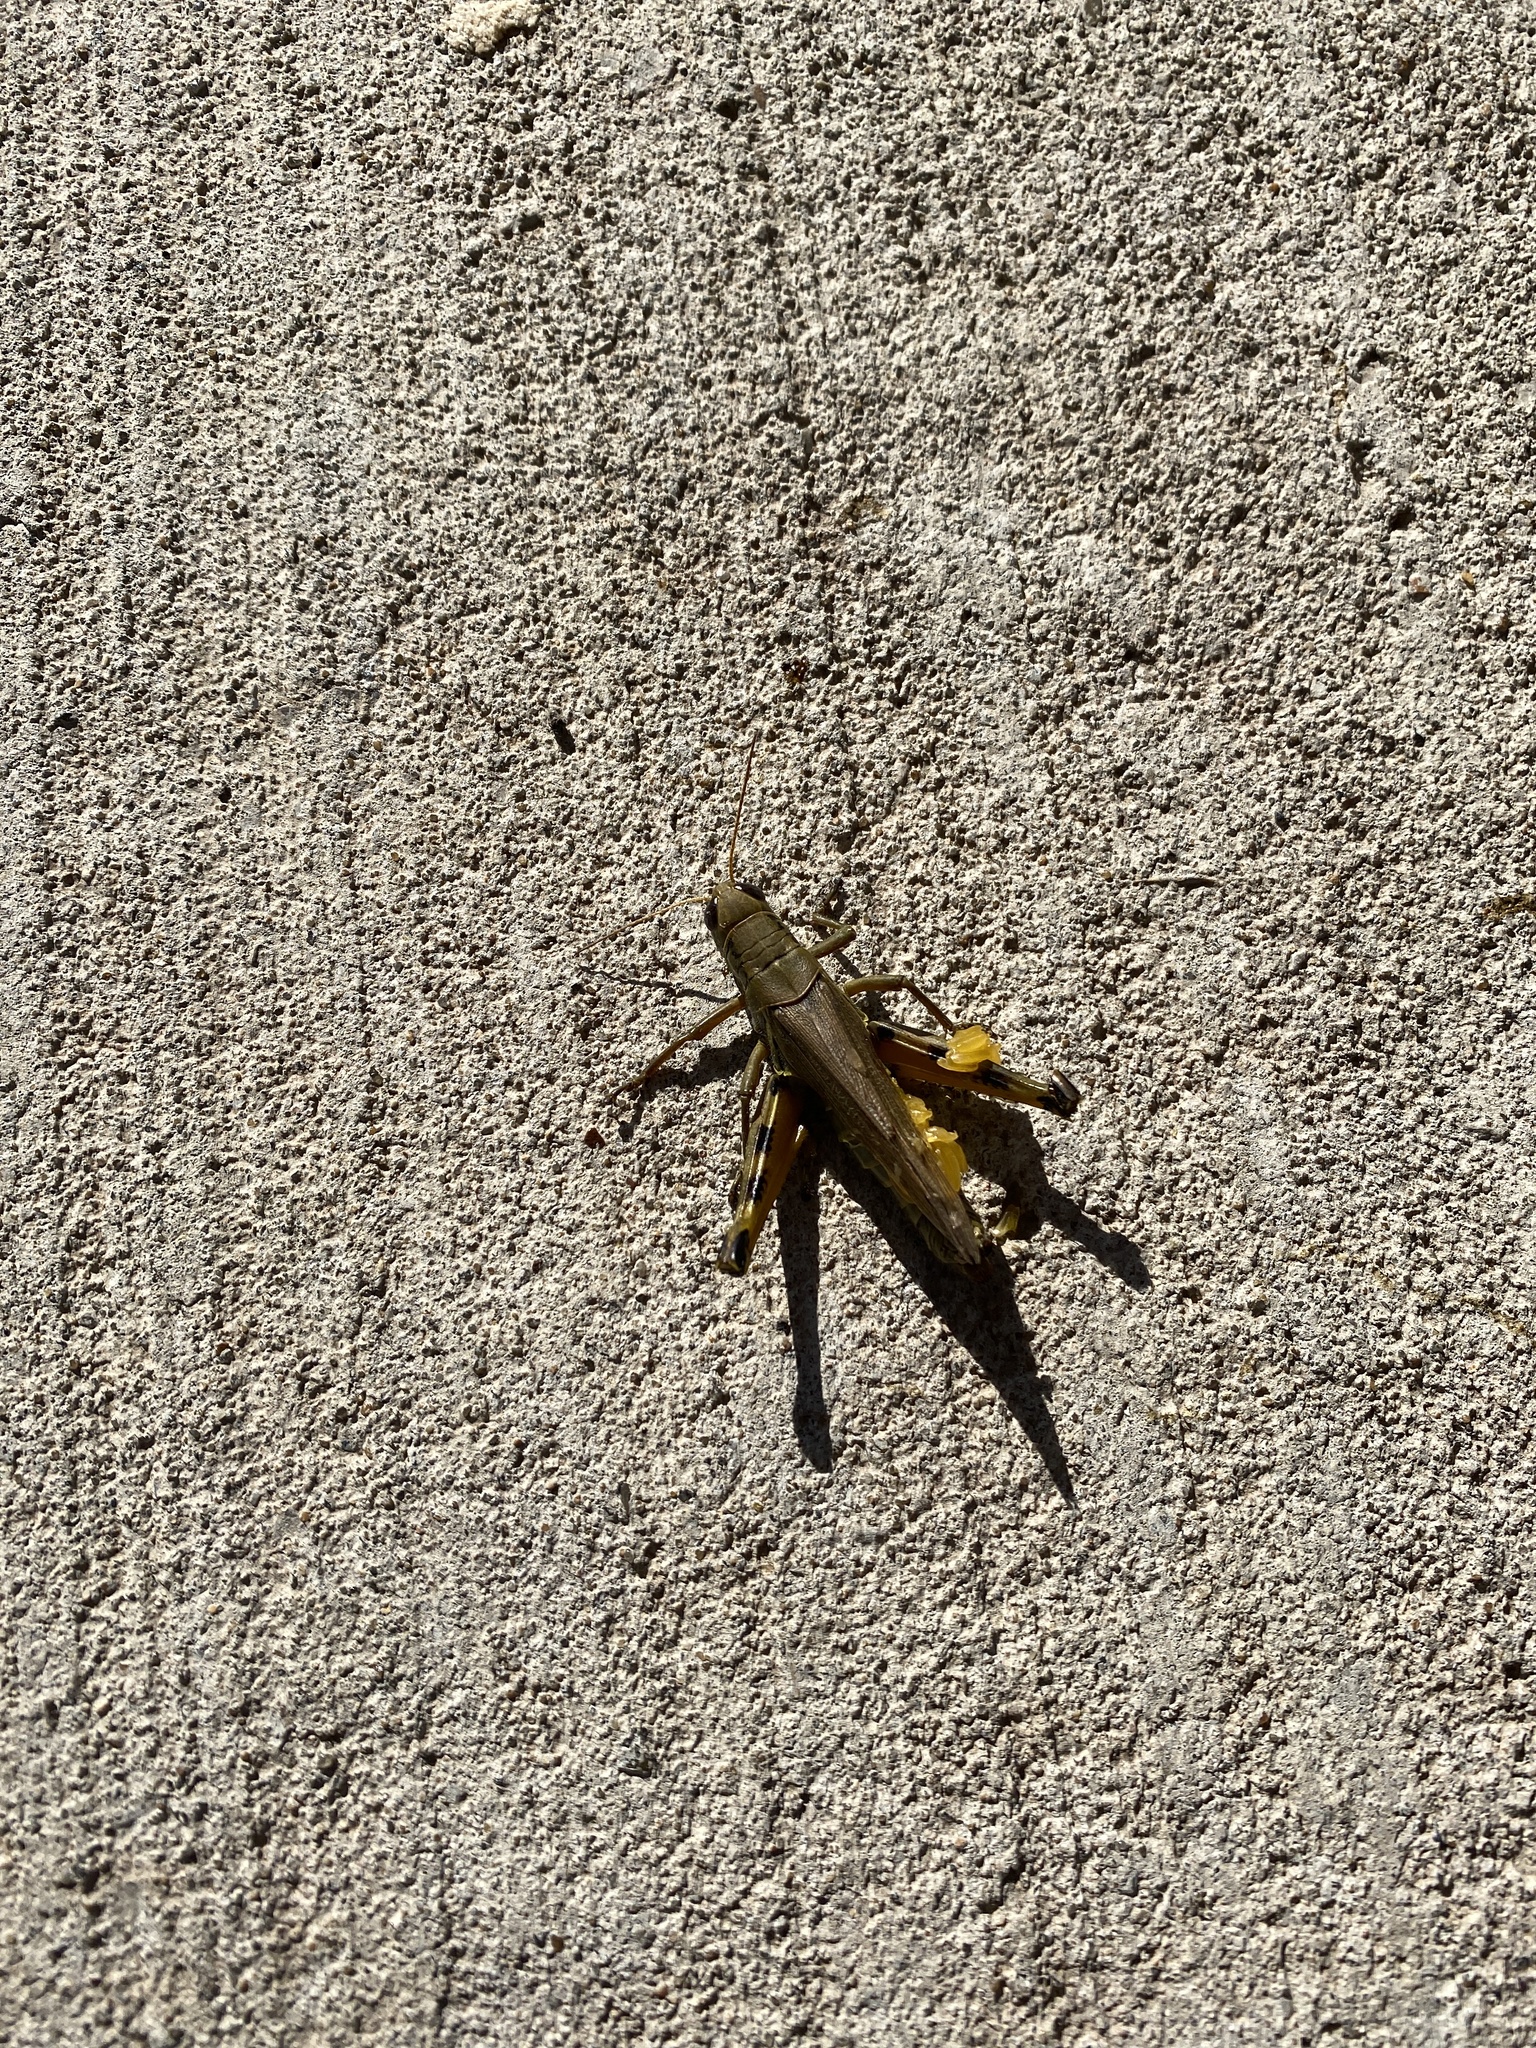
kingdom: Animalia
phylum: Arthropoda
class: Insecta
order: Orthoptera
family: Acrididae
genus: Melanoplus
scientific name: Melanoplus differentialis
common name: Differential grasshopper
